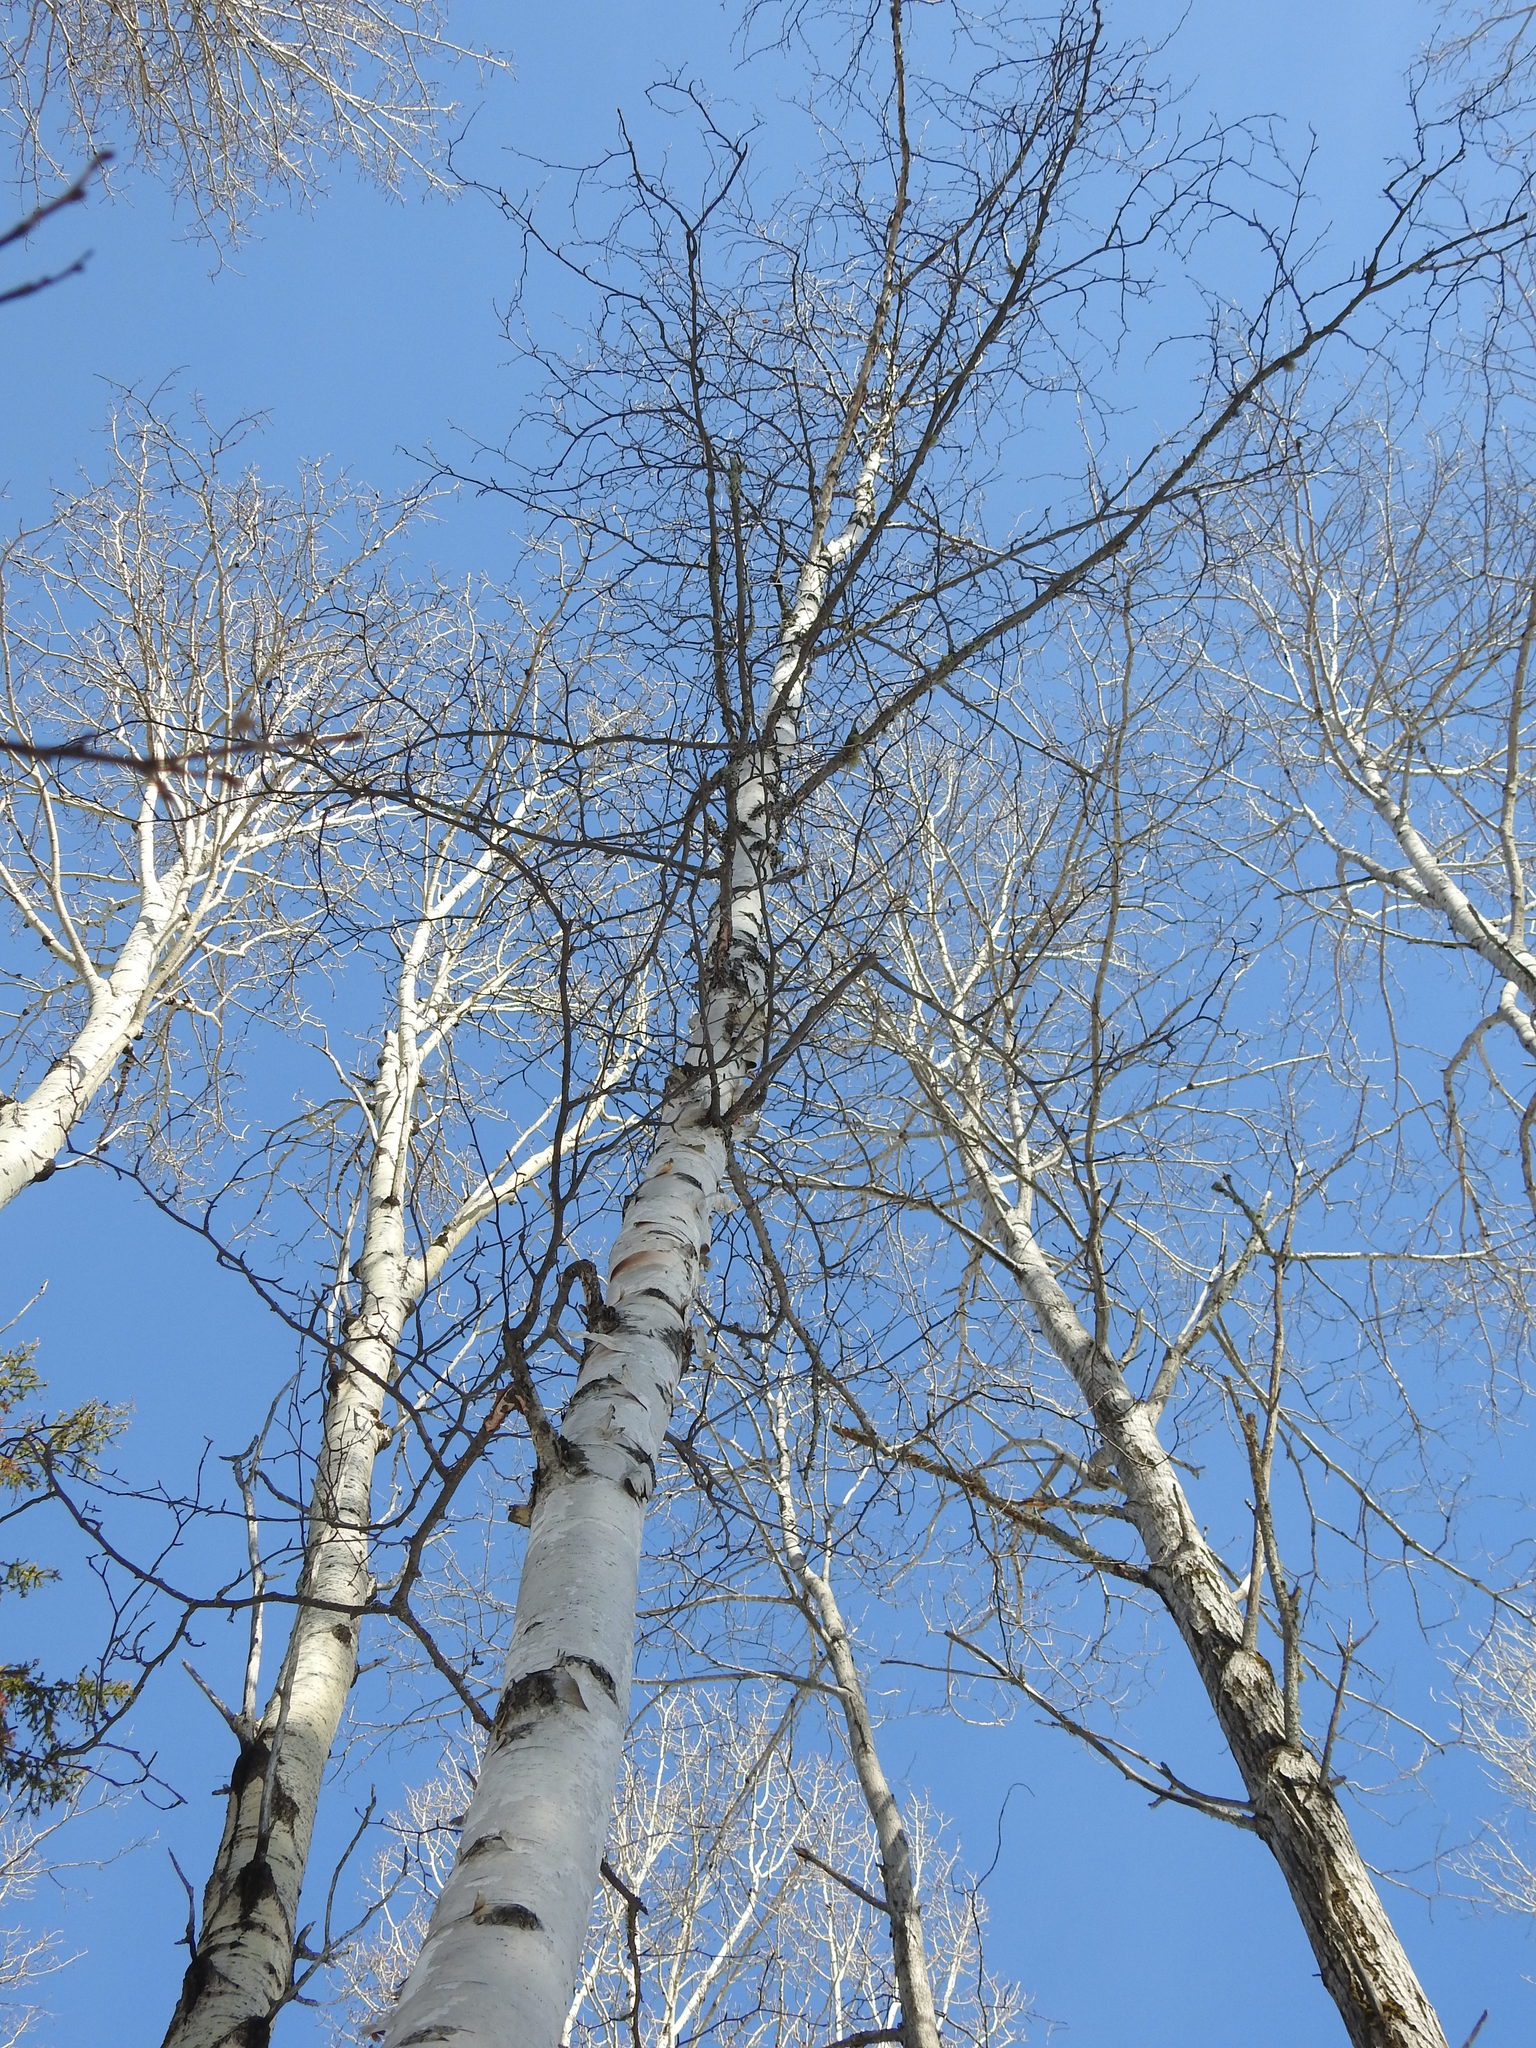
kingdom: Plantae
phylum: Tracheophyta
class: Magnoliopsida
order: Fagales
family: Betulaceae
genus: Betula
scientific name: Betula papyrifera
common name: Paper birch
